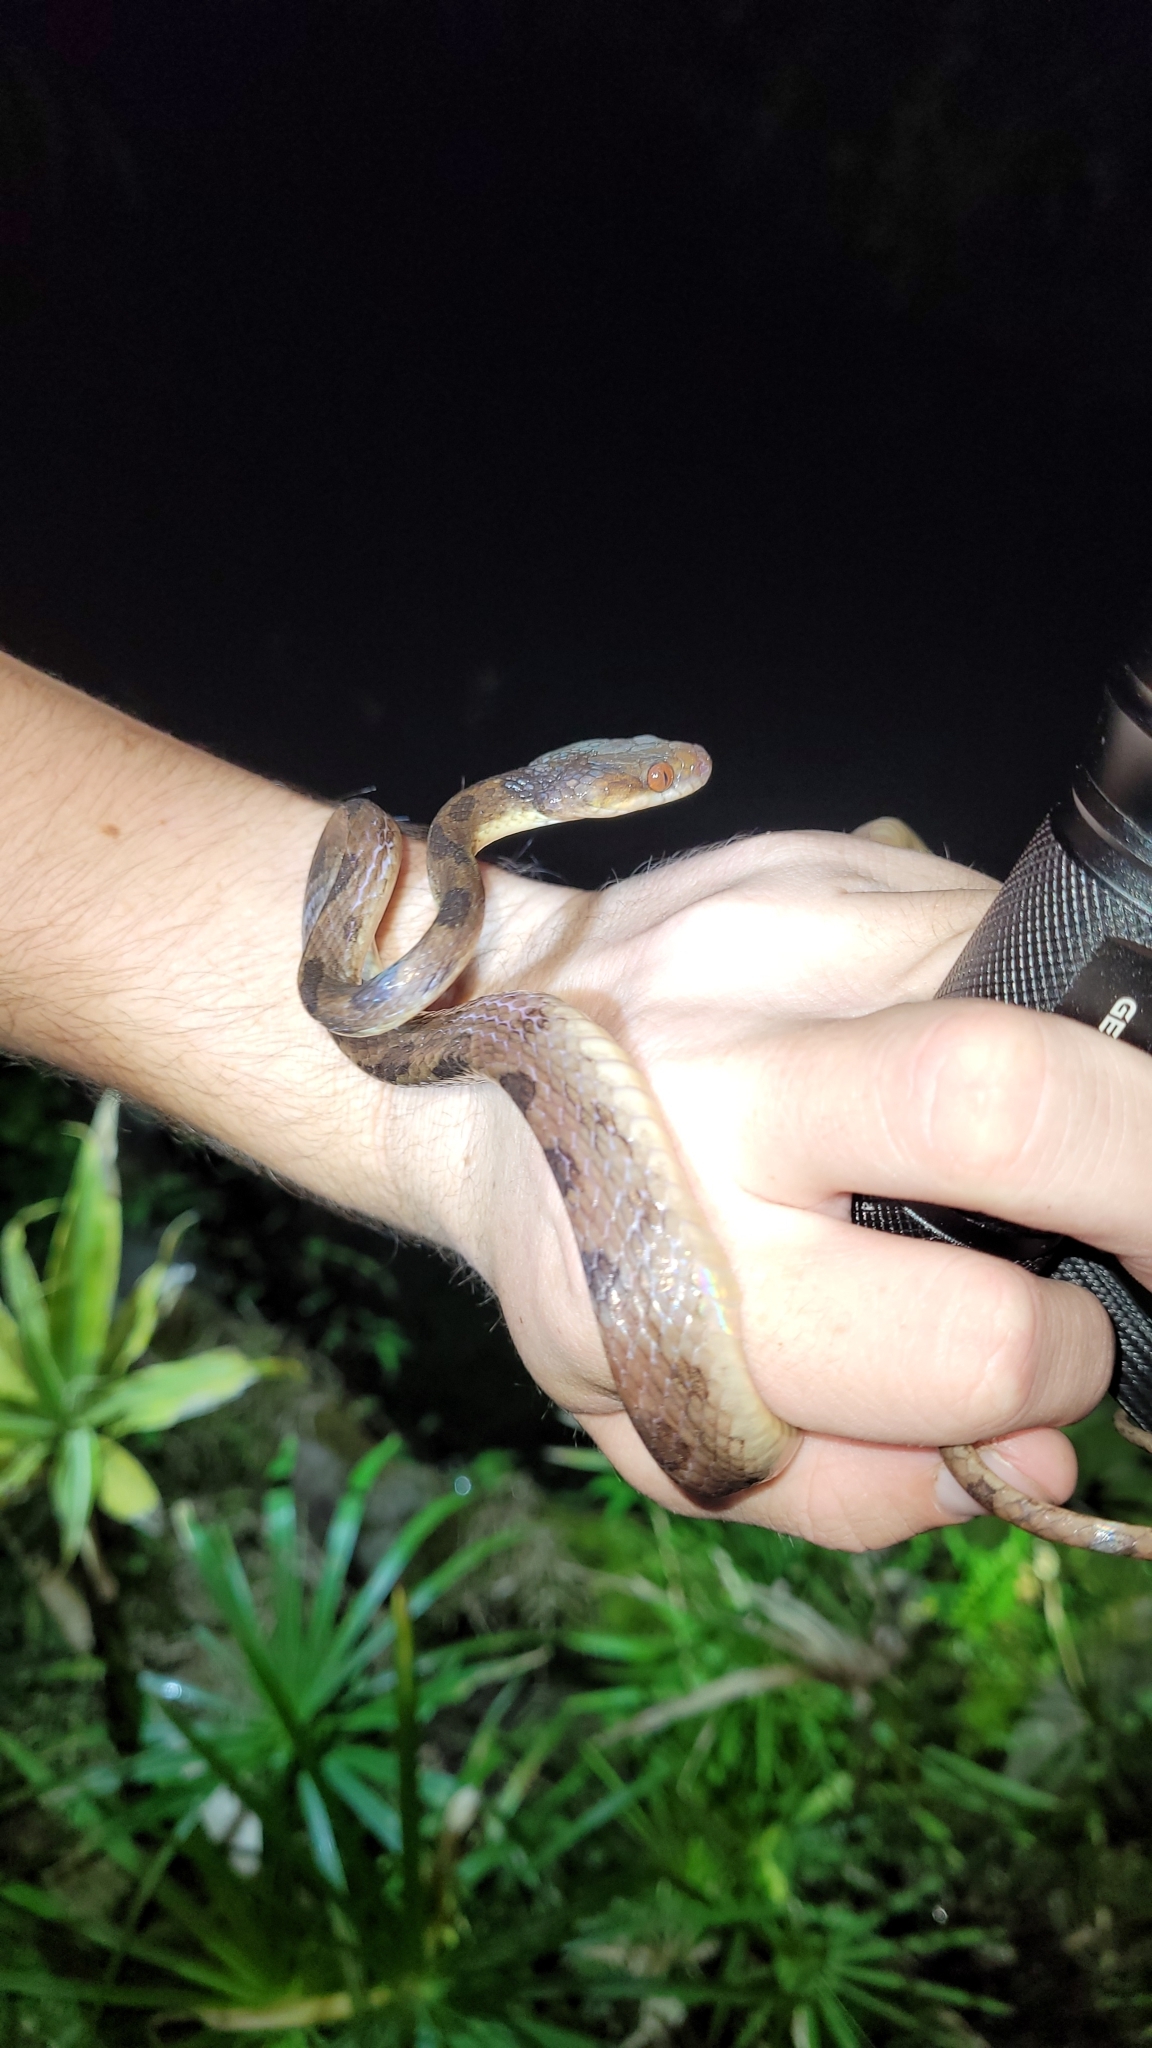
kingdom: Animalia
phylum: Chordata
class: Squamata
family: Colubridae
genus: Leptodeira
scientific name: Leptodeira ornata
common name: Northern cat-eyed snake
